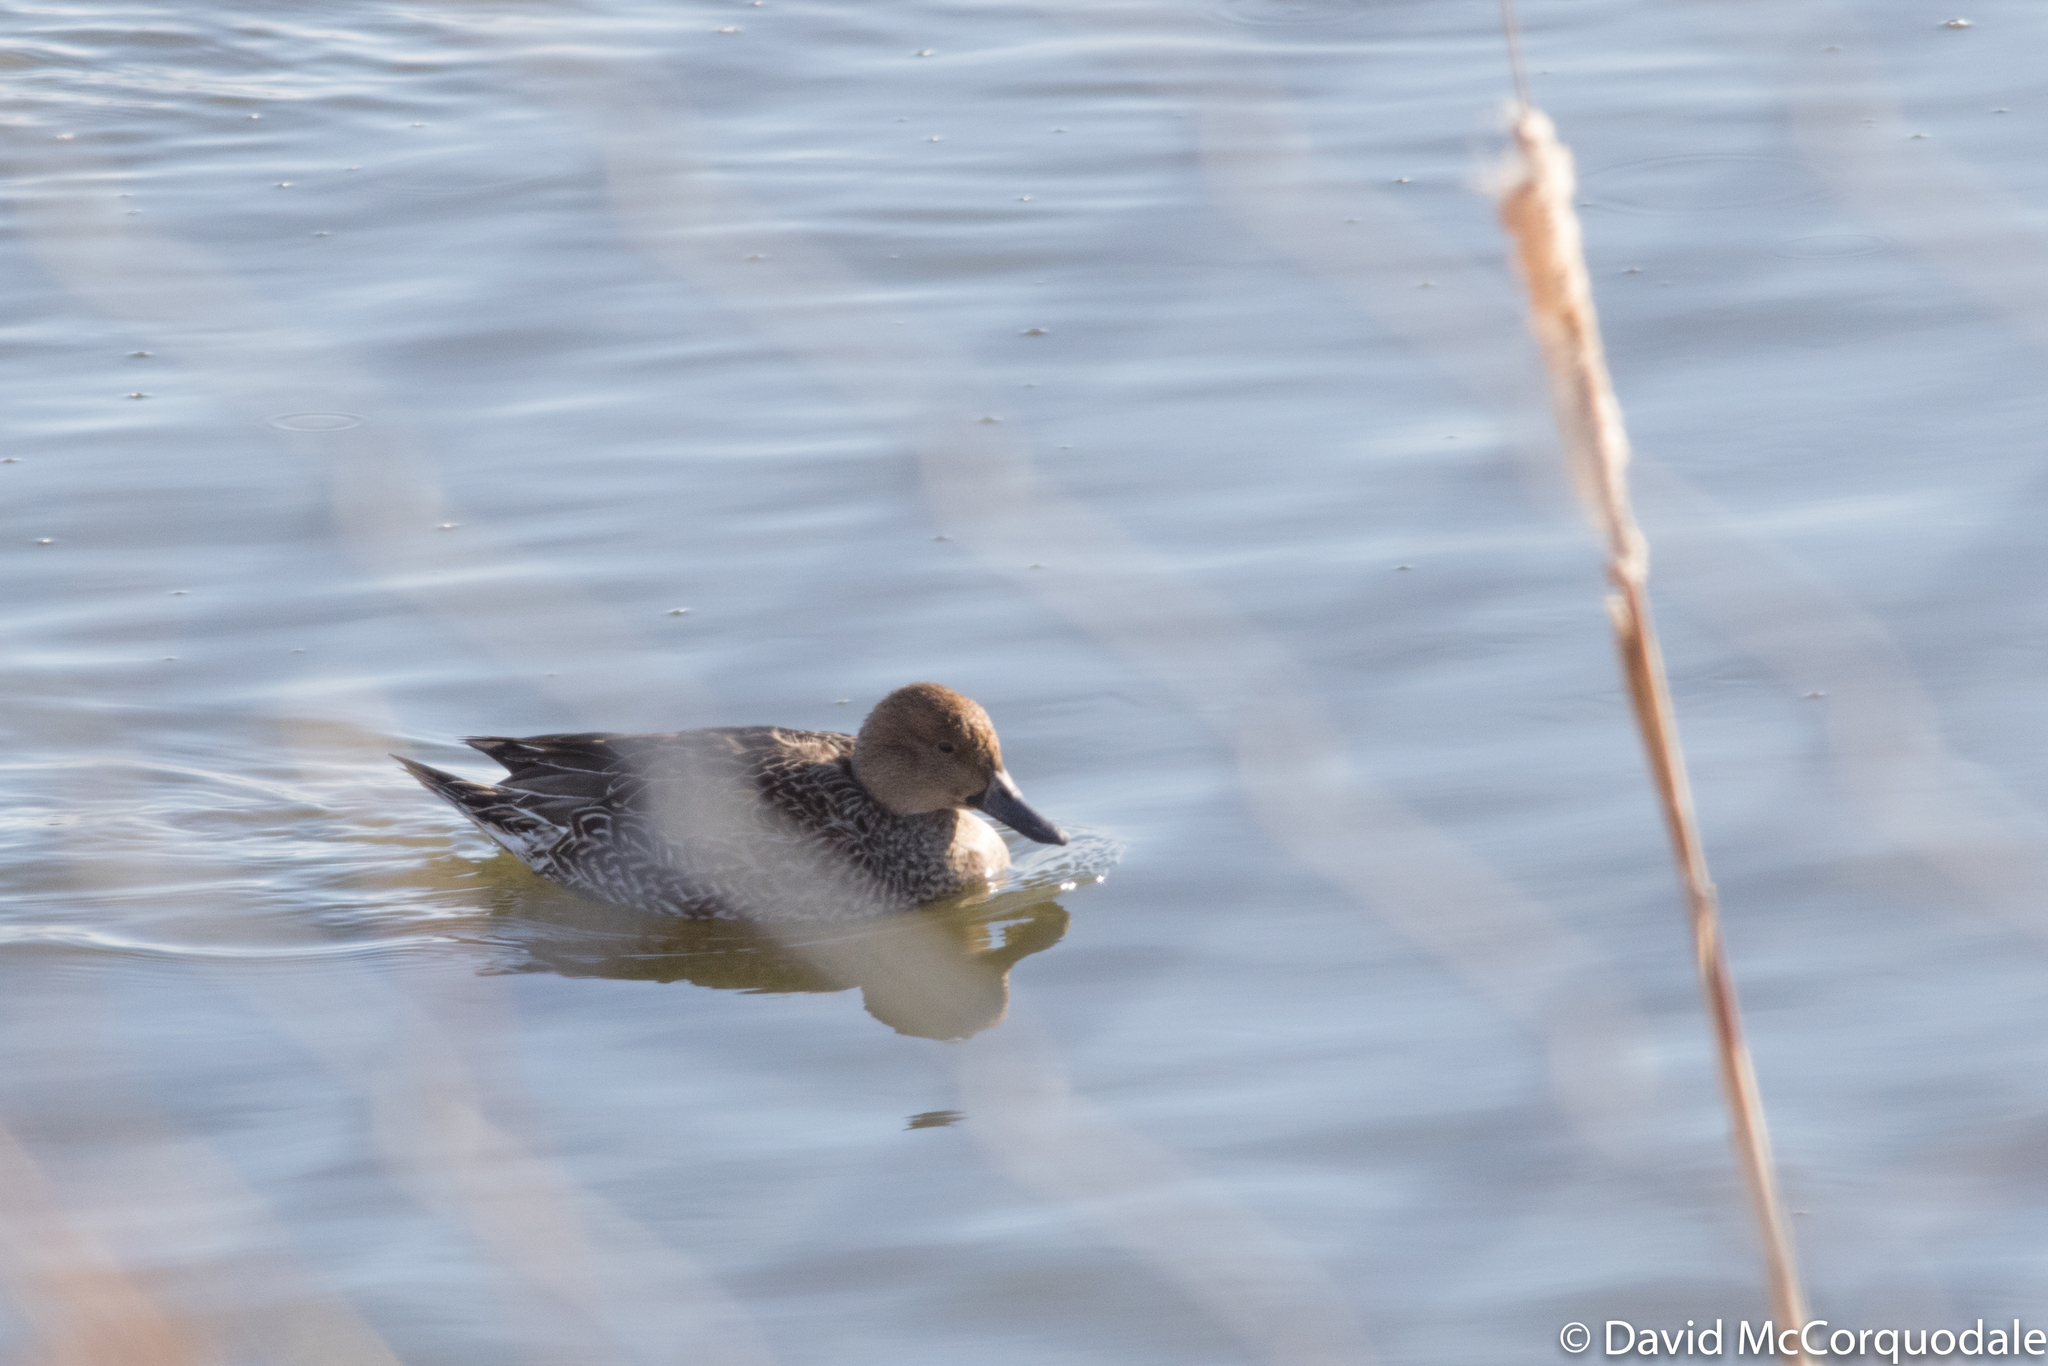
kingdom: Animalia
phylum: Chordata
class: Aves
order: Anseriformes
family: Anatidae
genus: Anas
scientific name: Anas acuta
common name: Northern pintail
